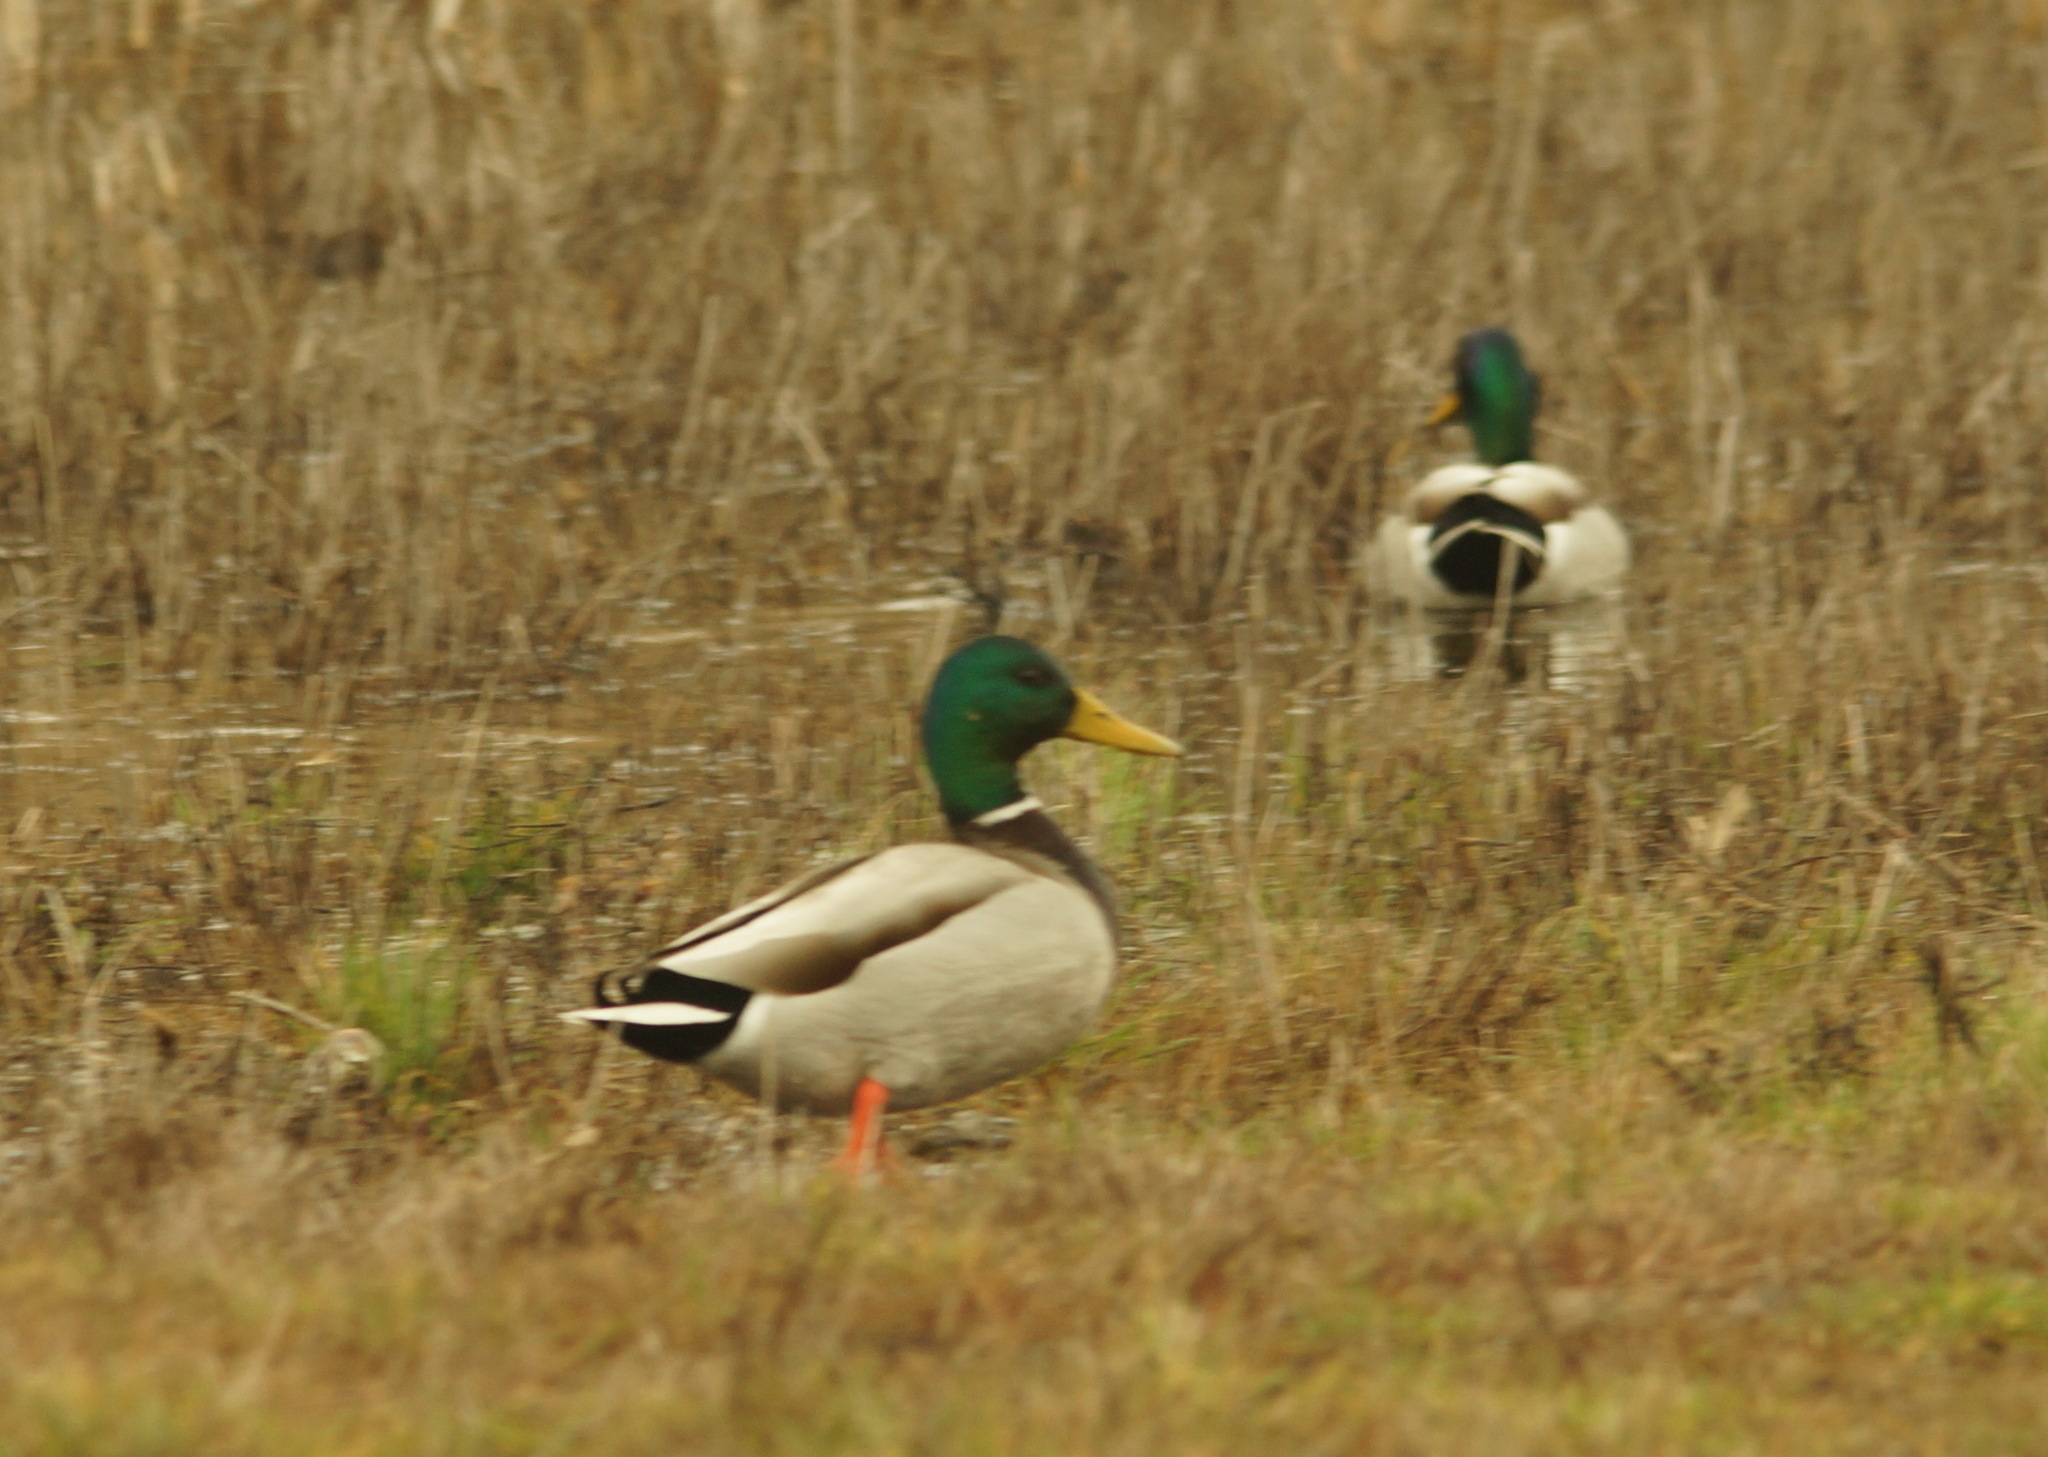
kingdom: Animalia
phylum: Chordata
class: Aves
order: Anseriformes
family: Anatidae
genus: Anas
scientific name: Anas platyrhynchos
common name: Mallard
